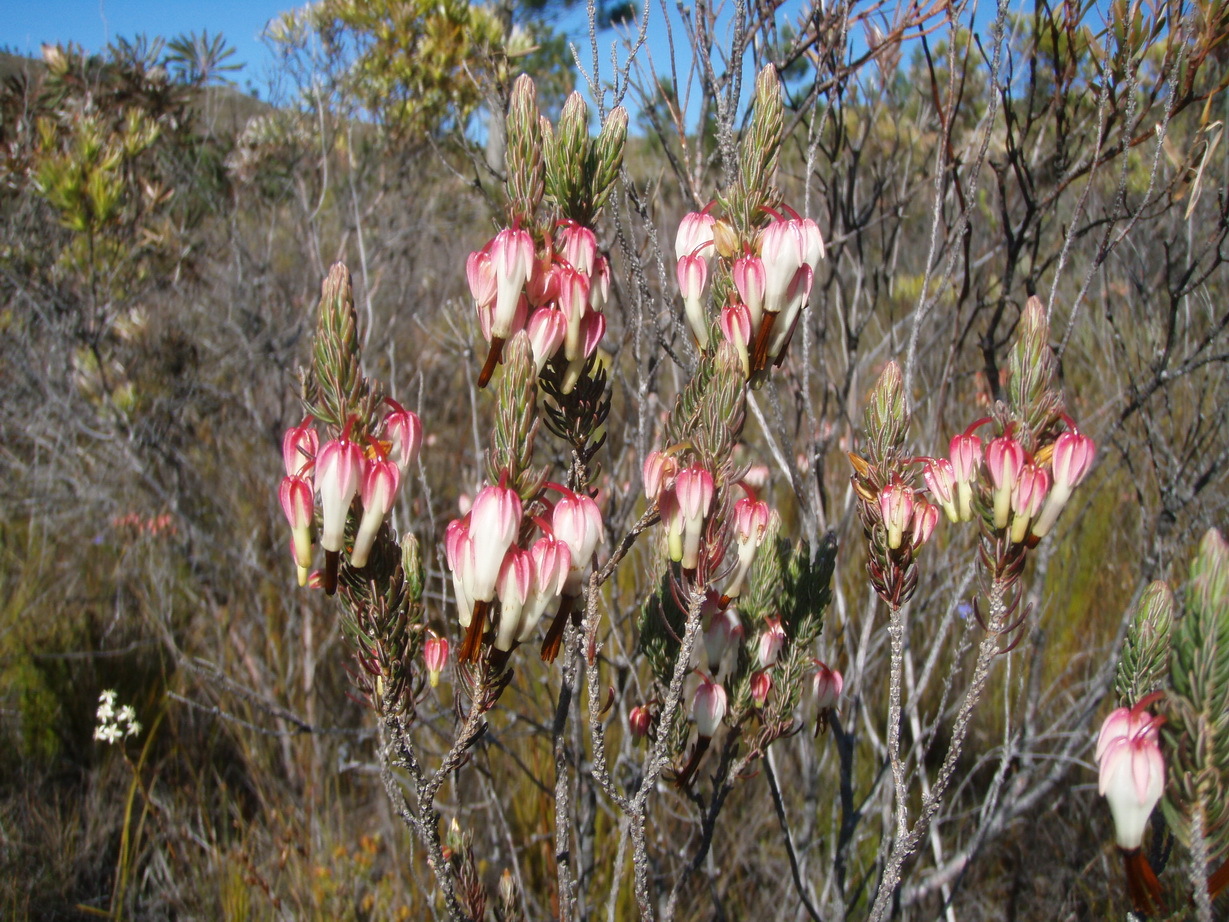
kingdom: Plantae
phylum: Tracheophyta
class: Magnoliopsida
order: Ericales
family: Ericaceae
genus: Erica
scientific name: Erica plukenetii
